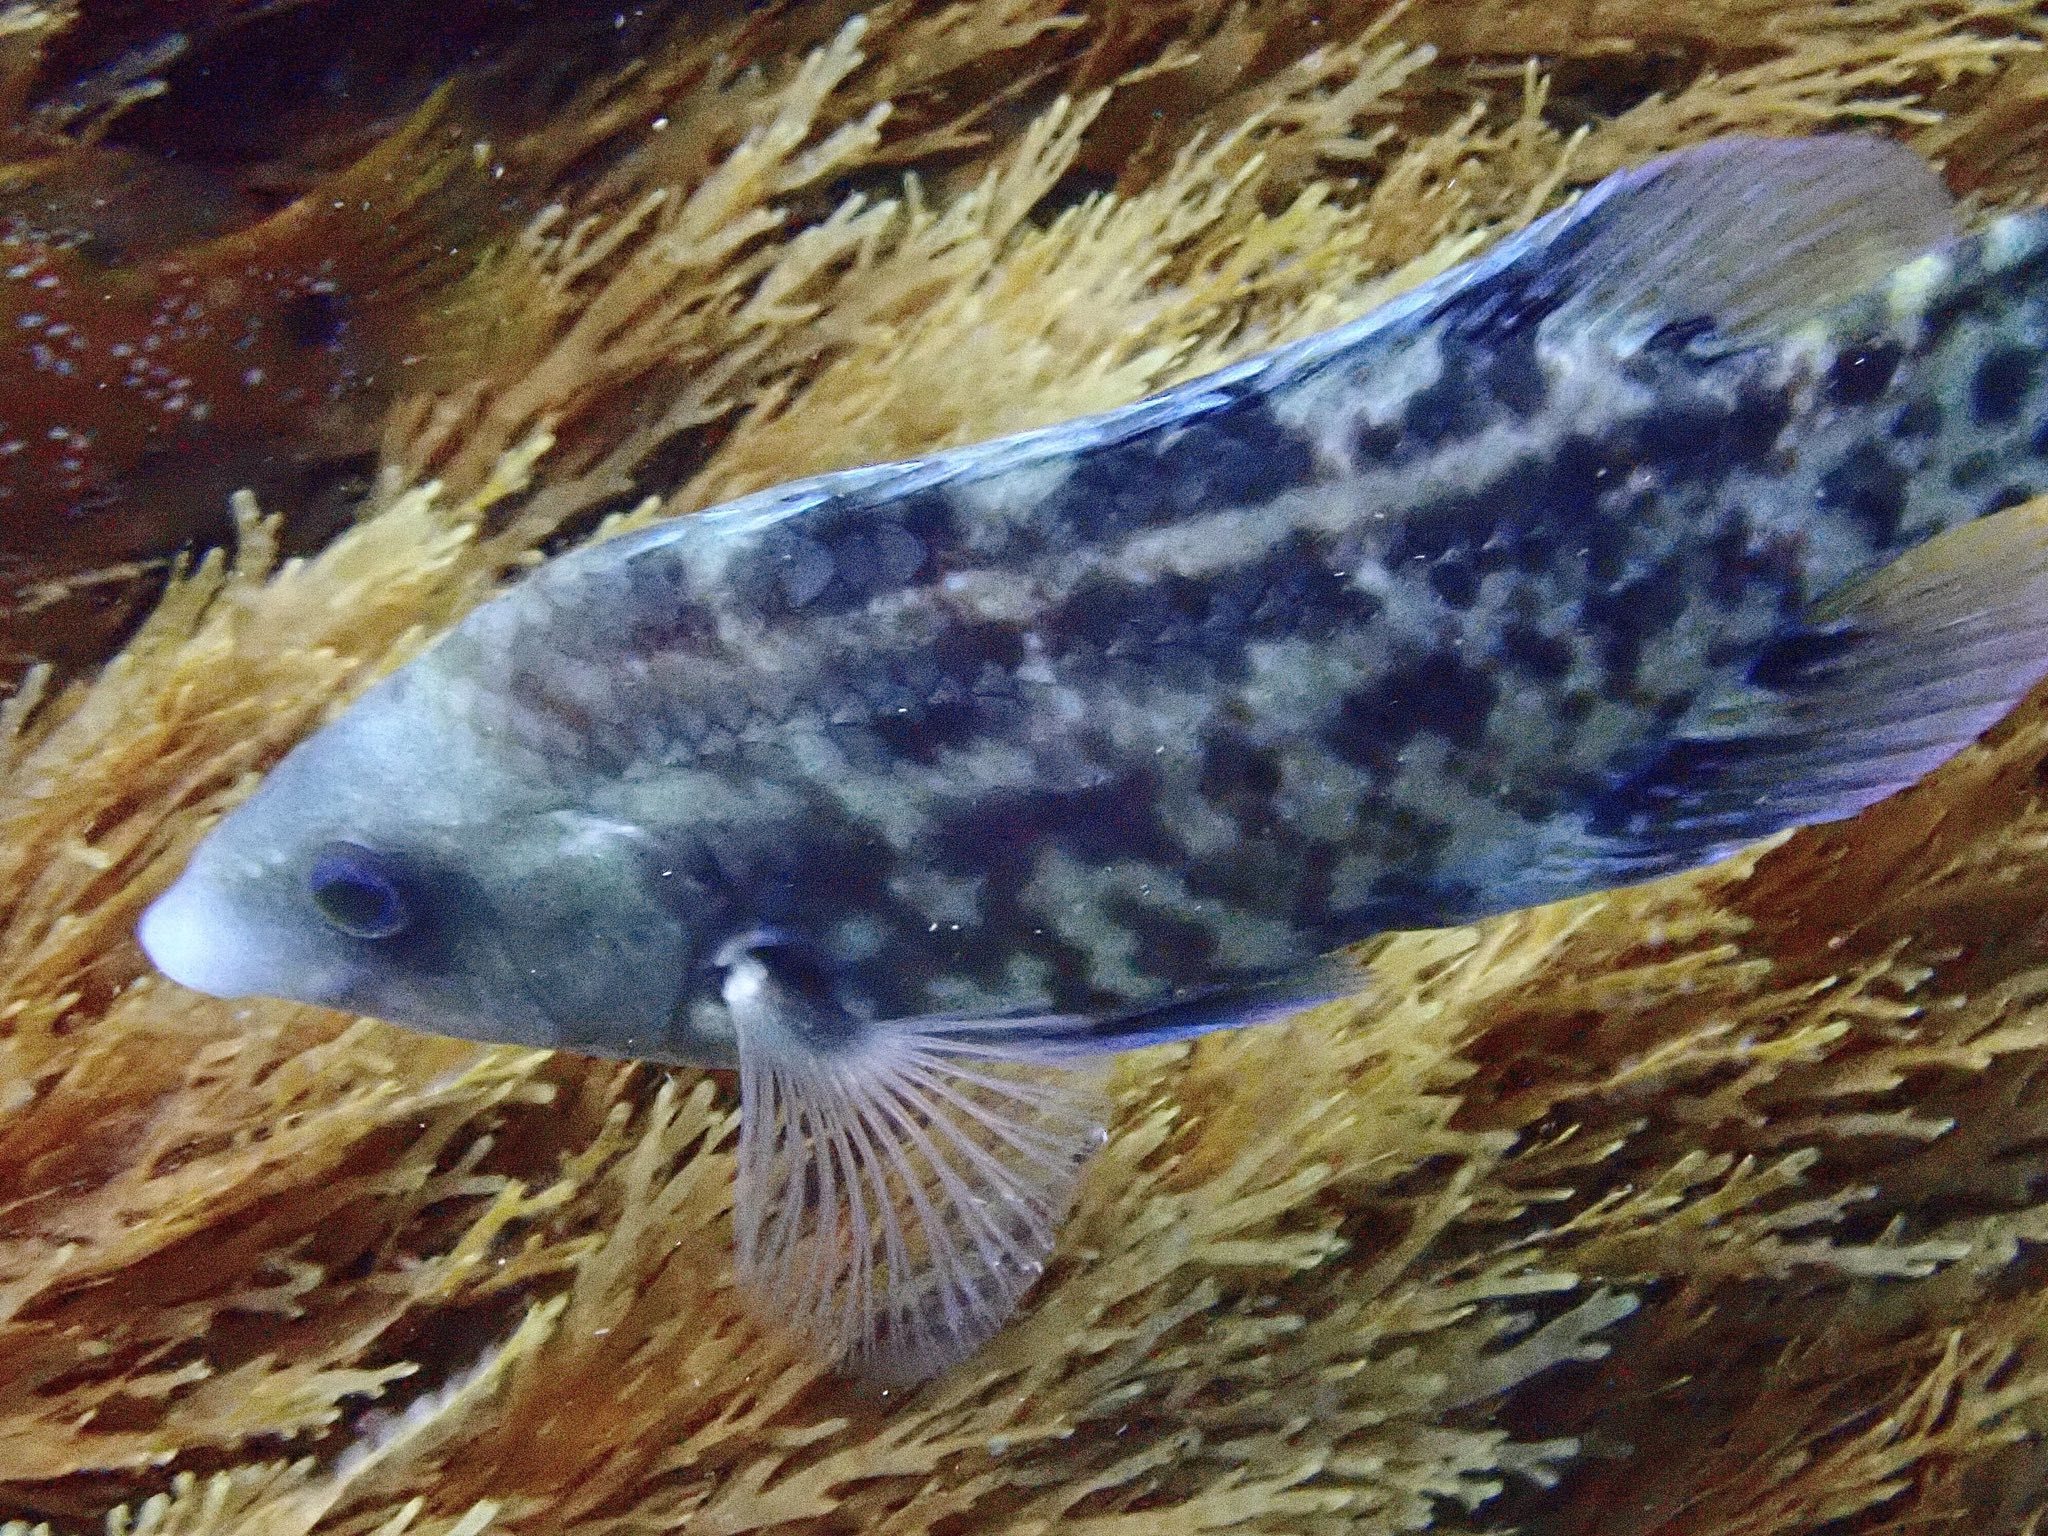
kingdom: Animalia
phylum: Chordata
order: Perciformes
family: Labridae
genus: Symphodus
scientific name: Symphodus caeruleus
